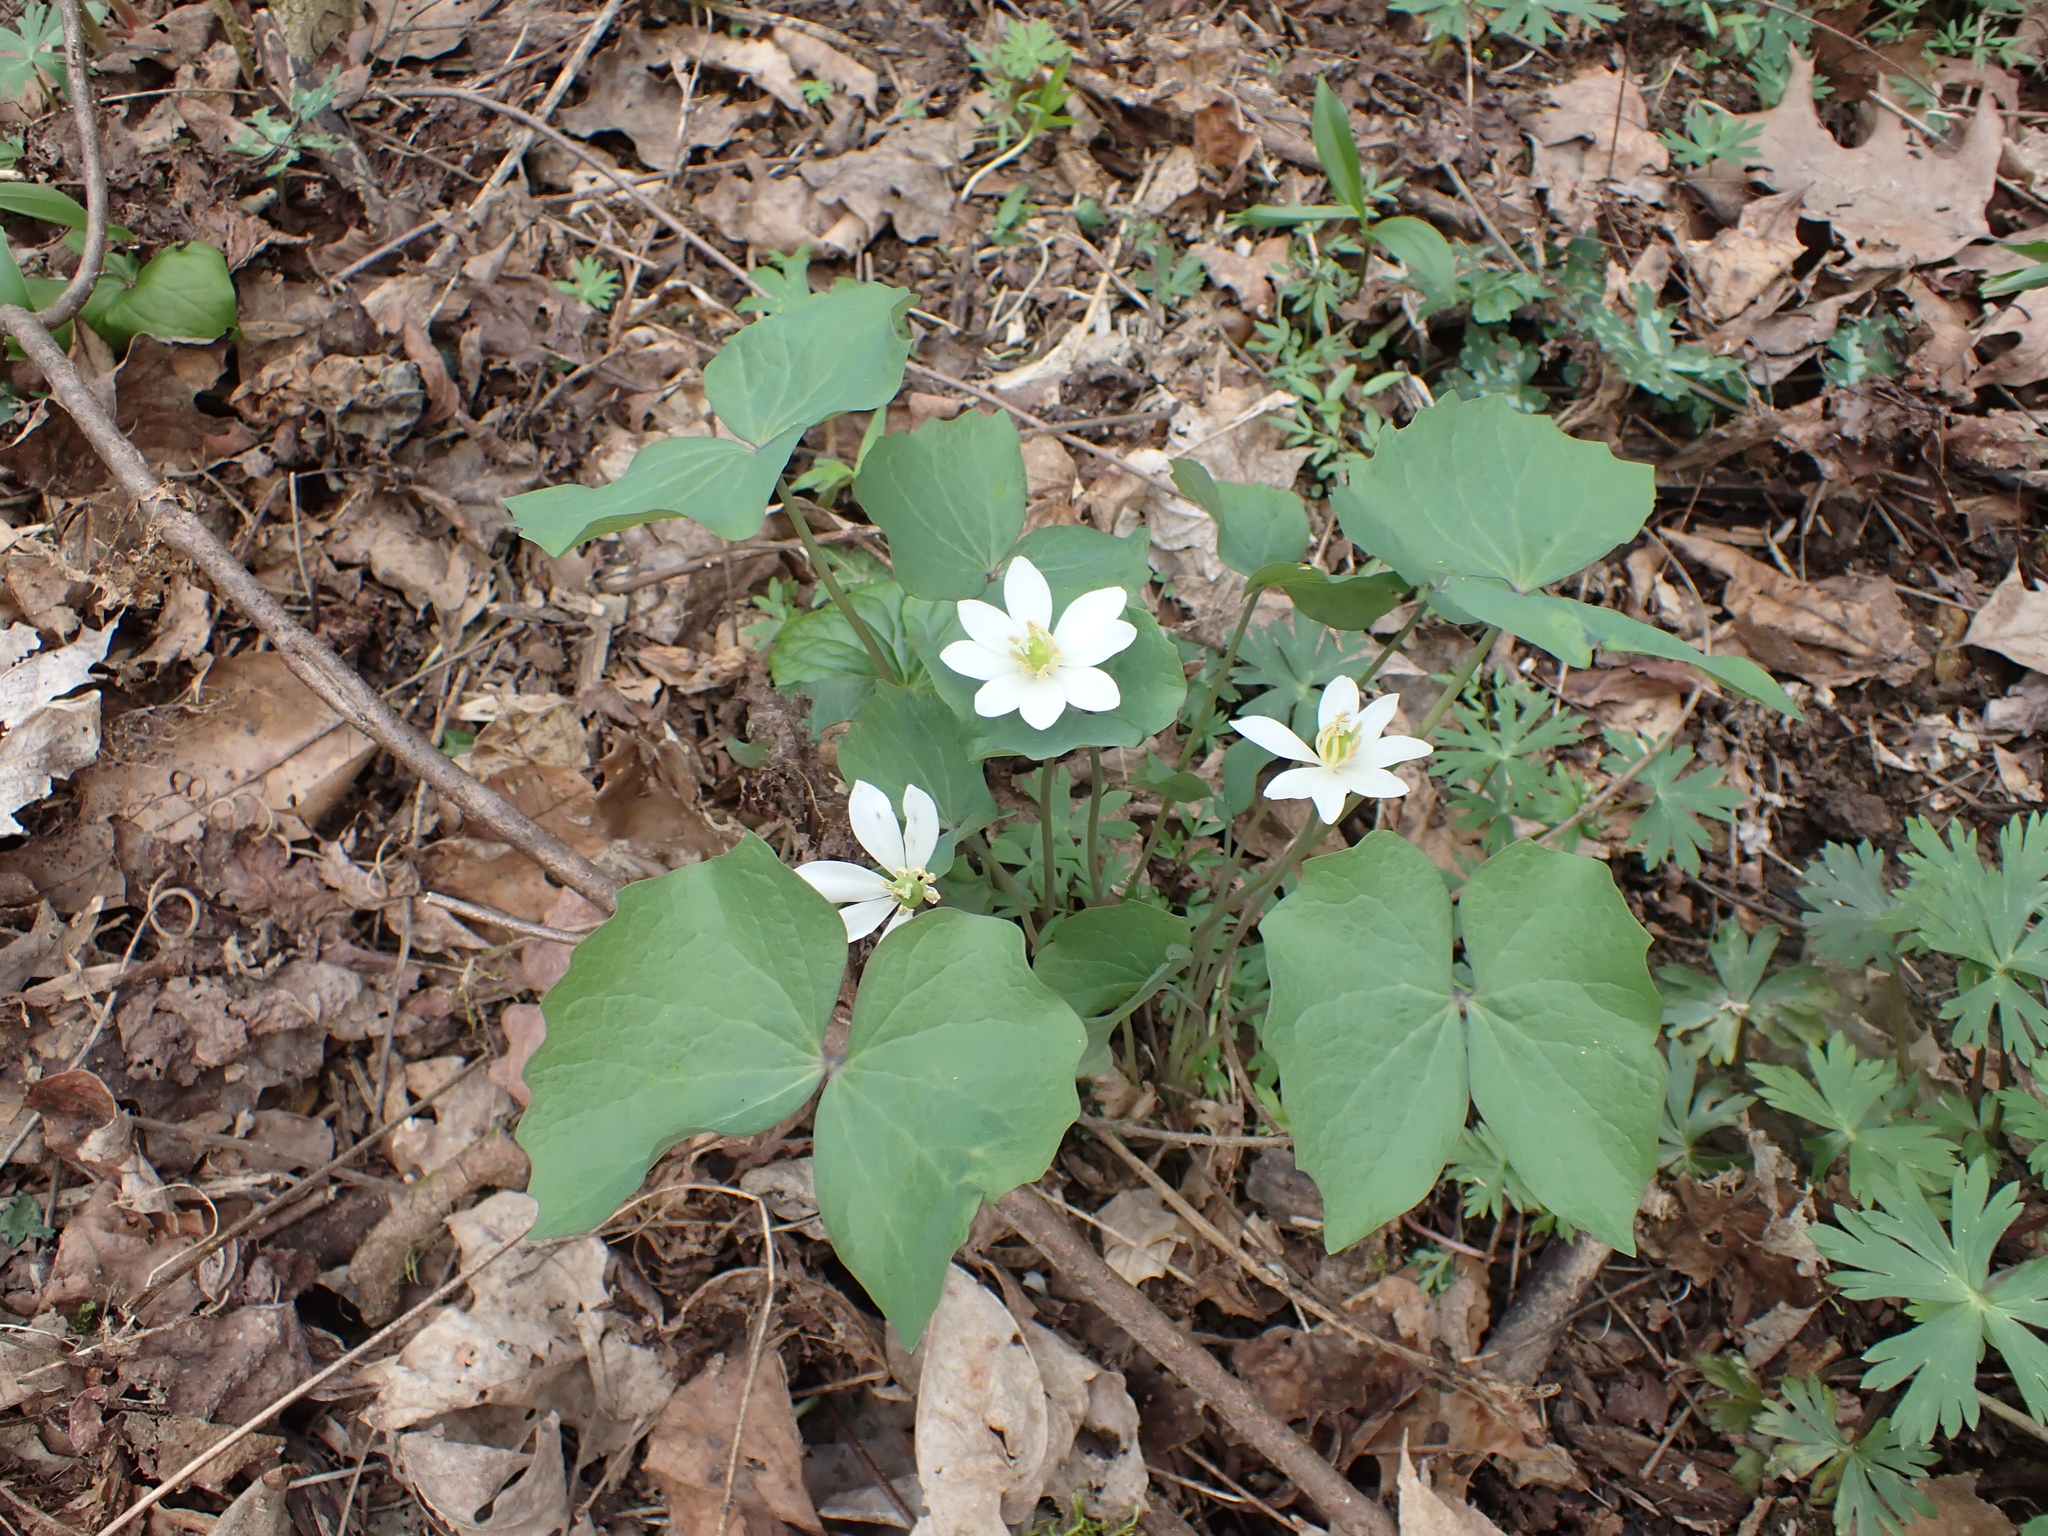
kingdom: Plantae
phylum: Tracheophyta
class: Magnoliopsida
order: Ranunculales
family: Berberidaceae
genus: Jeffersonia
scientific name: Jeffersonia diphylla
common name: Rheumatism-root
